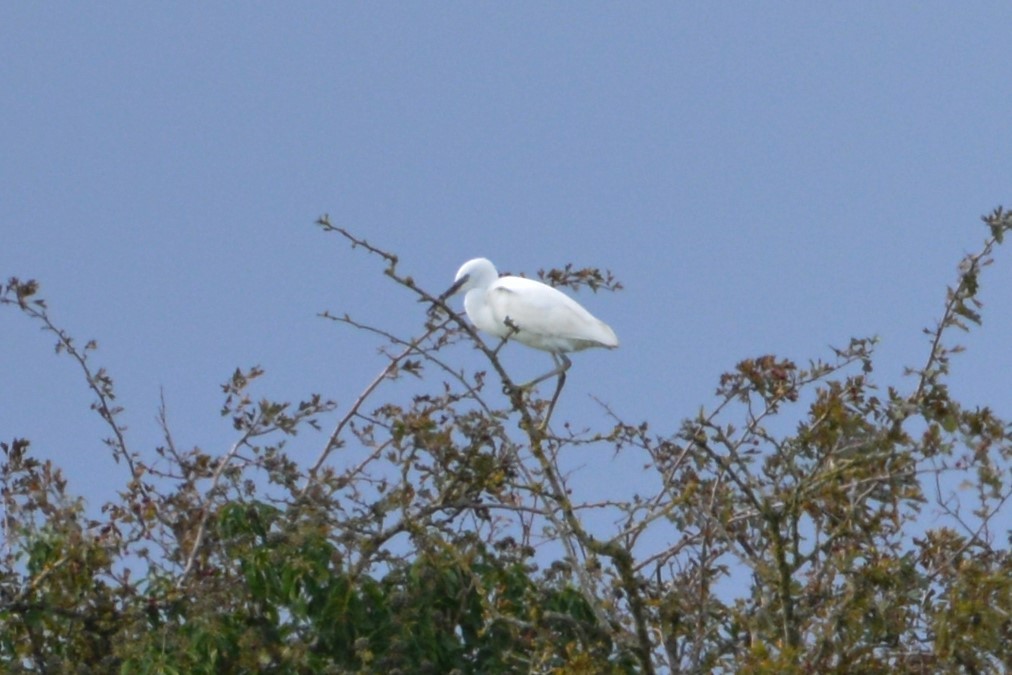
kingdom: Animalia
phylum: Chordata
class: Aves
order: Pelecaniformes
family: Ardeidae
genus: Egretta
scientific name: Egretta garzetta
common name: Little egret
